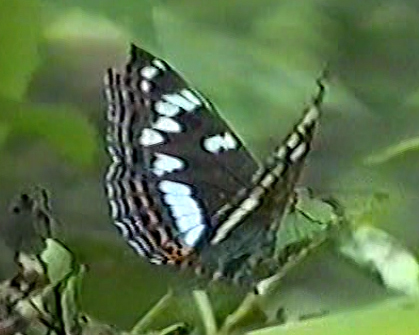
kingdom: Animalia
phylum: Arthropoda
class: Insecta
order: Lepidoptera
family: Nymphalidae
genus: Limenitis
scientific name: Limenitis populi
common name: Poplar admiral
